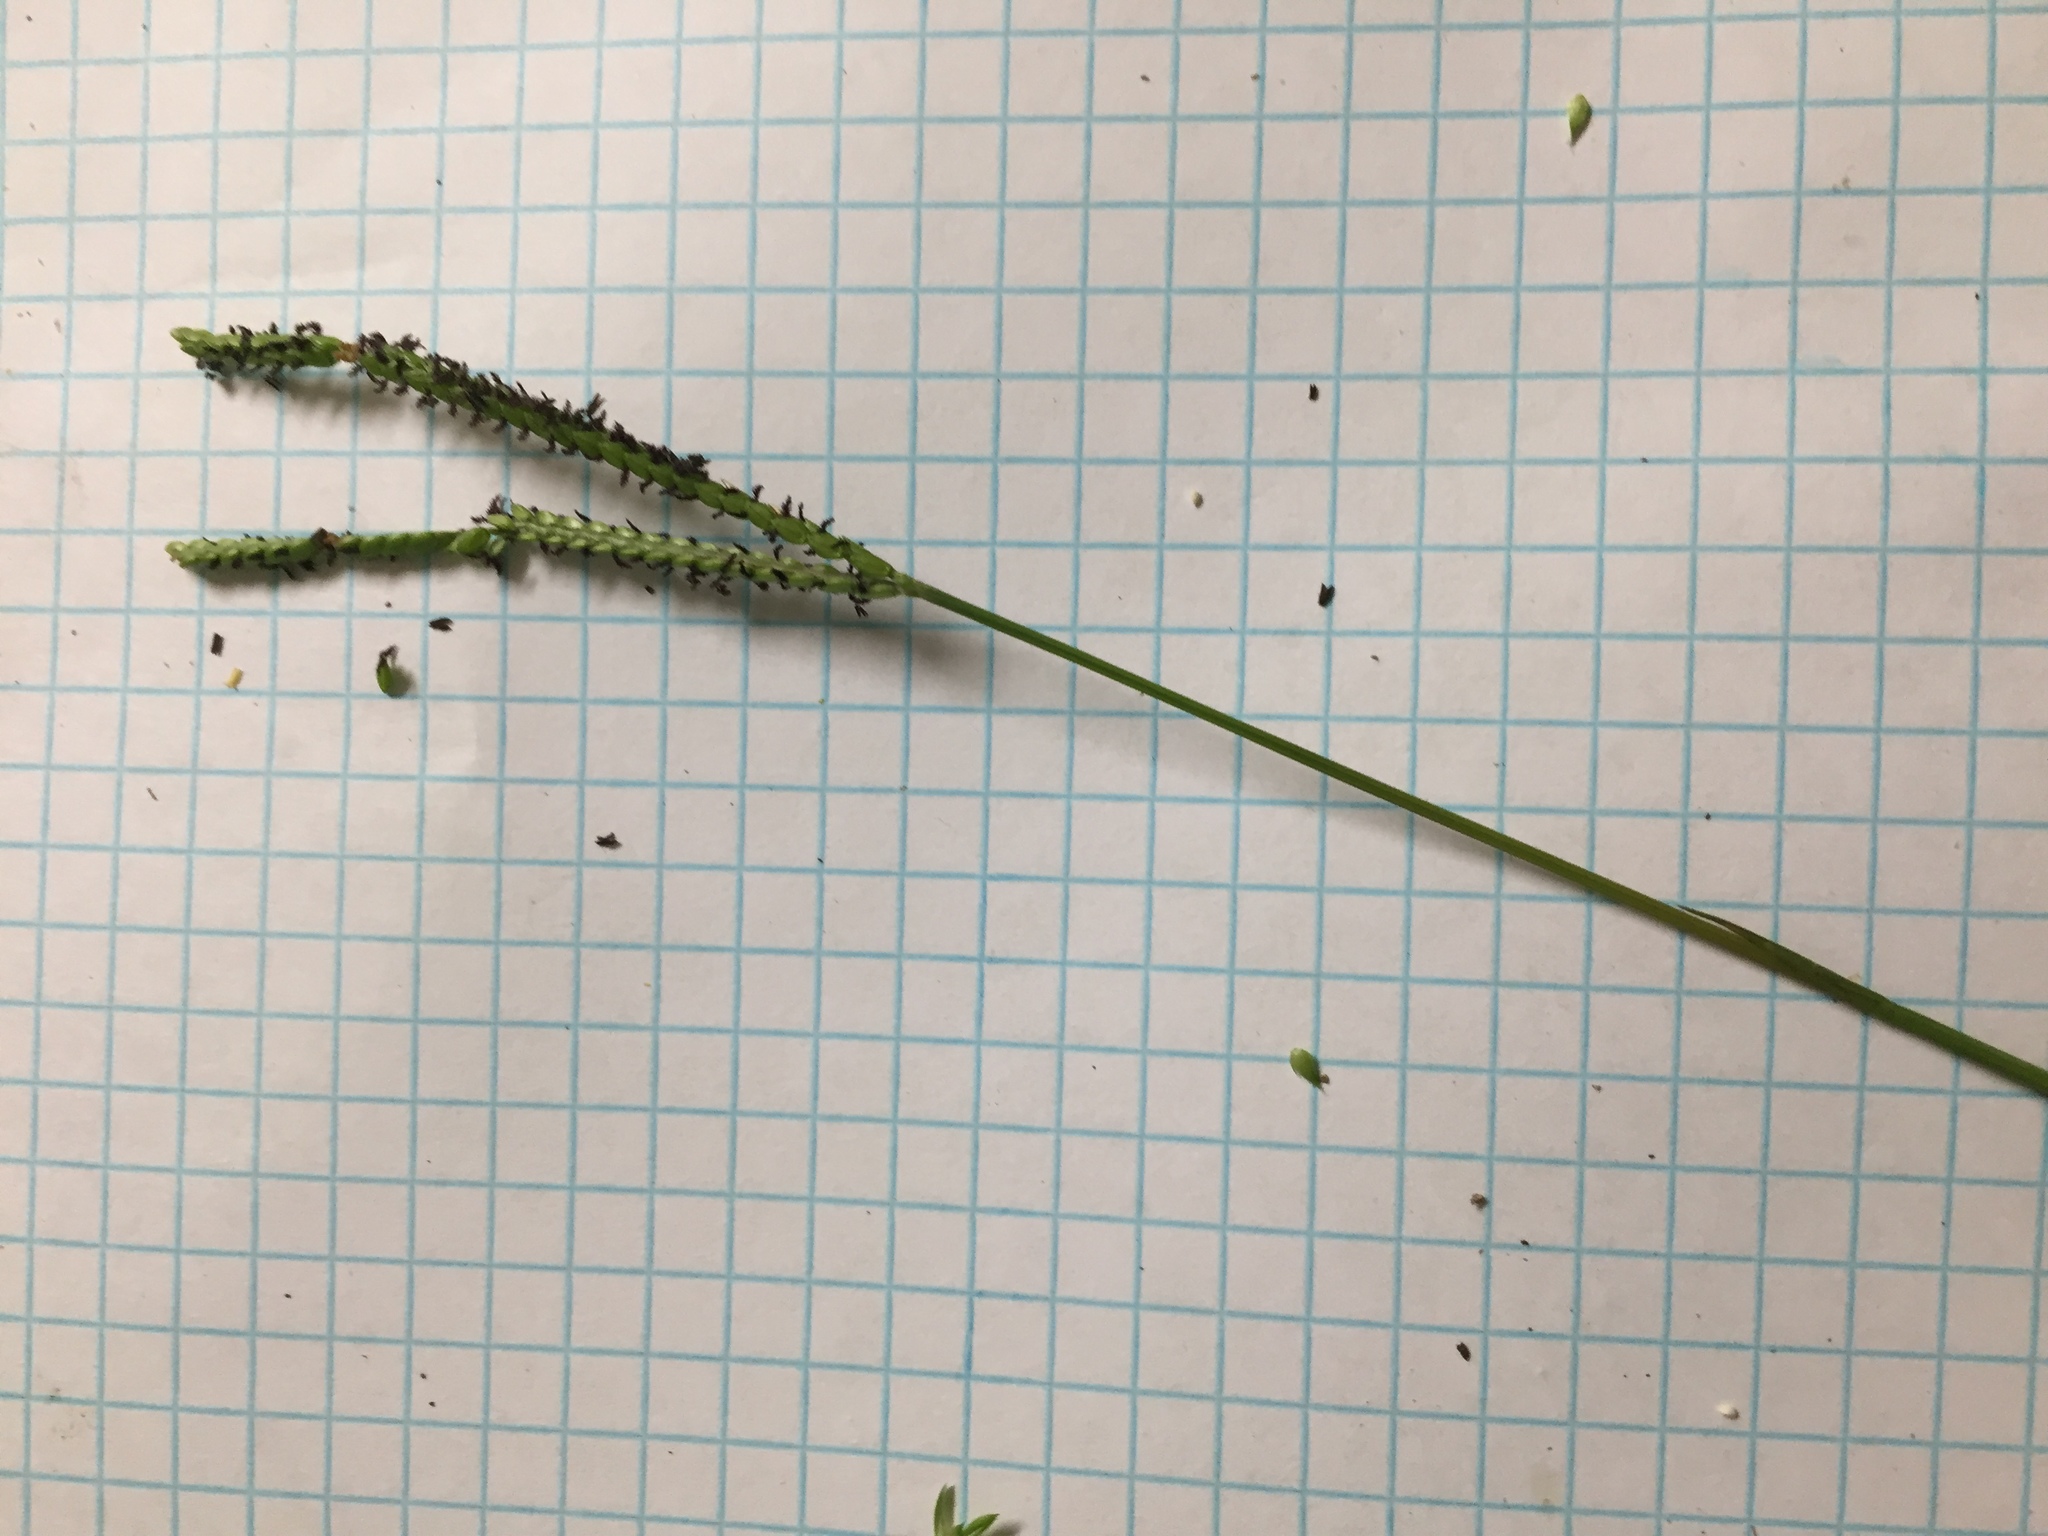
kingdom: Plantae
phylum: Tracheophyta
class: Liliopsida
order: Poales
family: Poaceae
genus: Paspalum
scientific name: Paspalum notatum
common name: Bahiagrass
